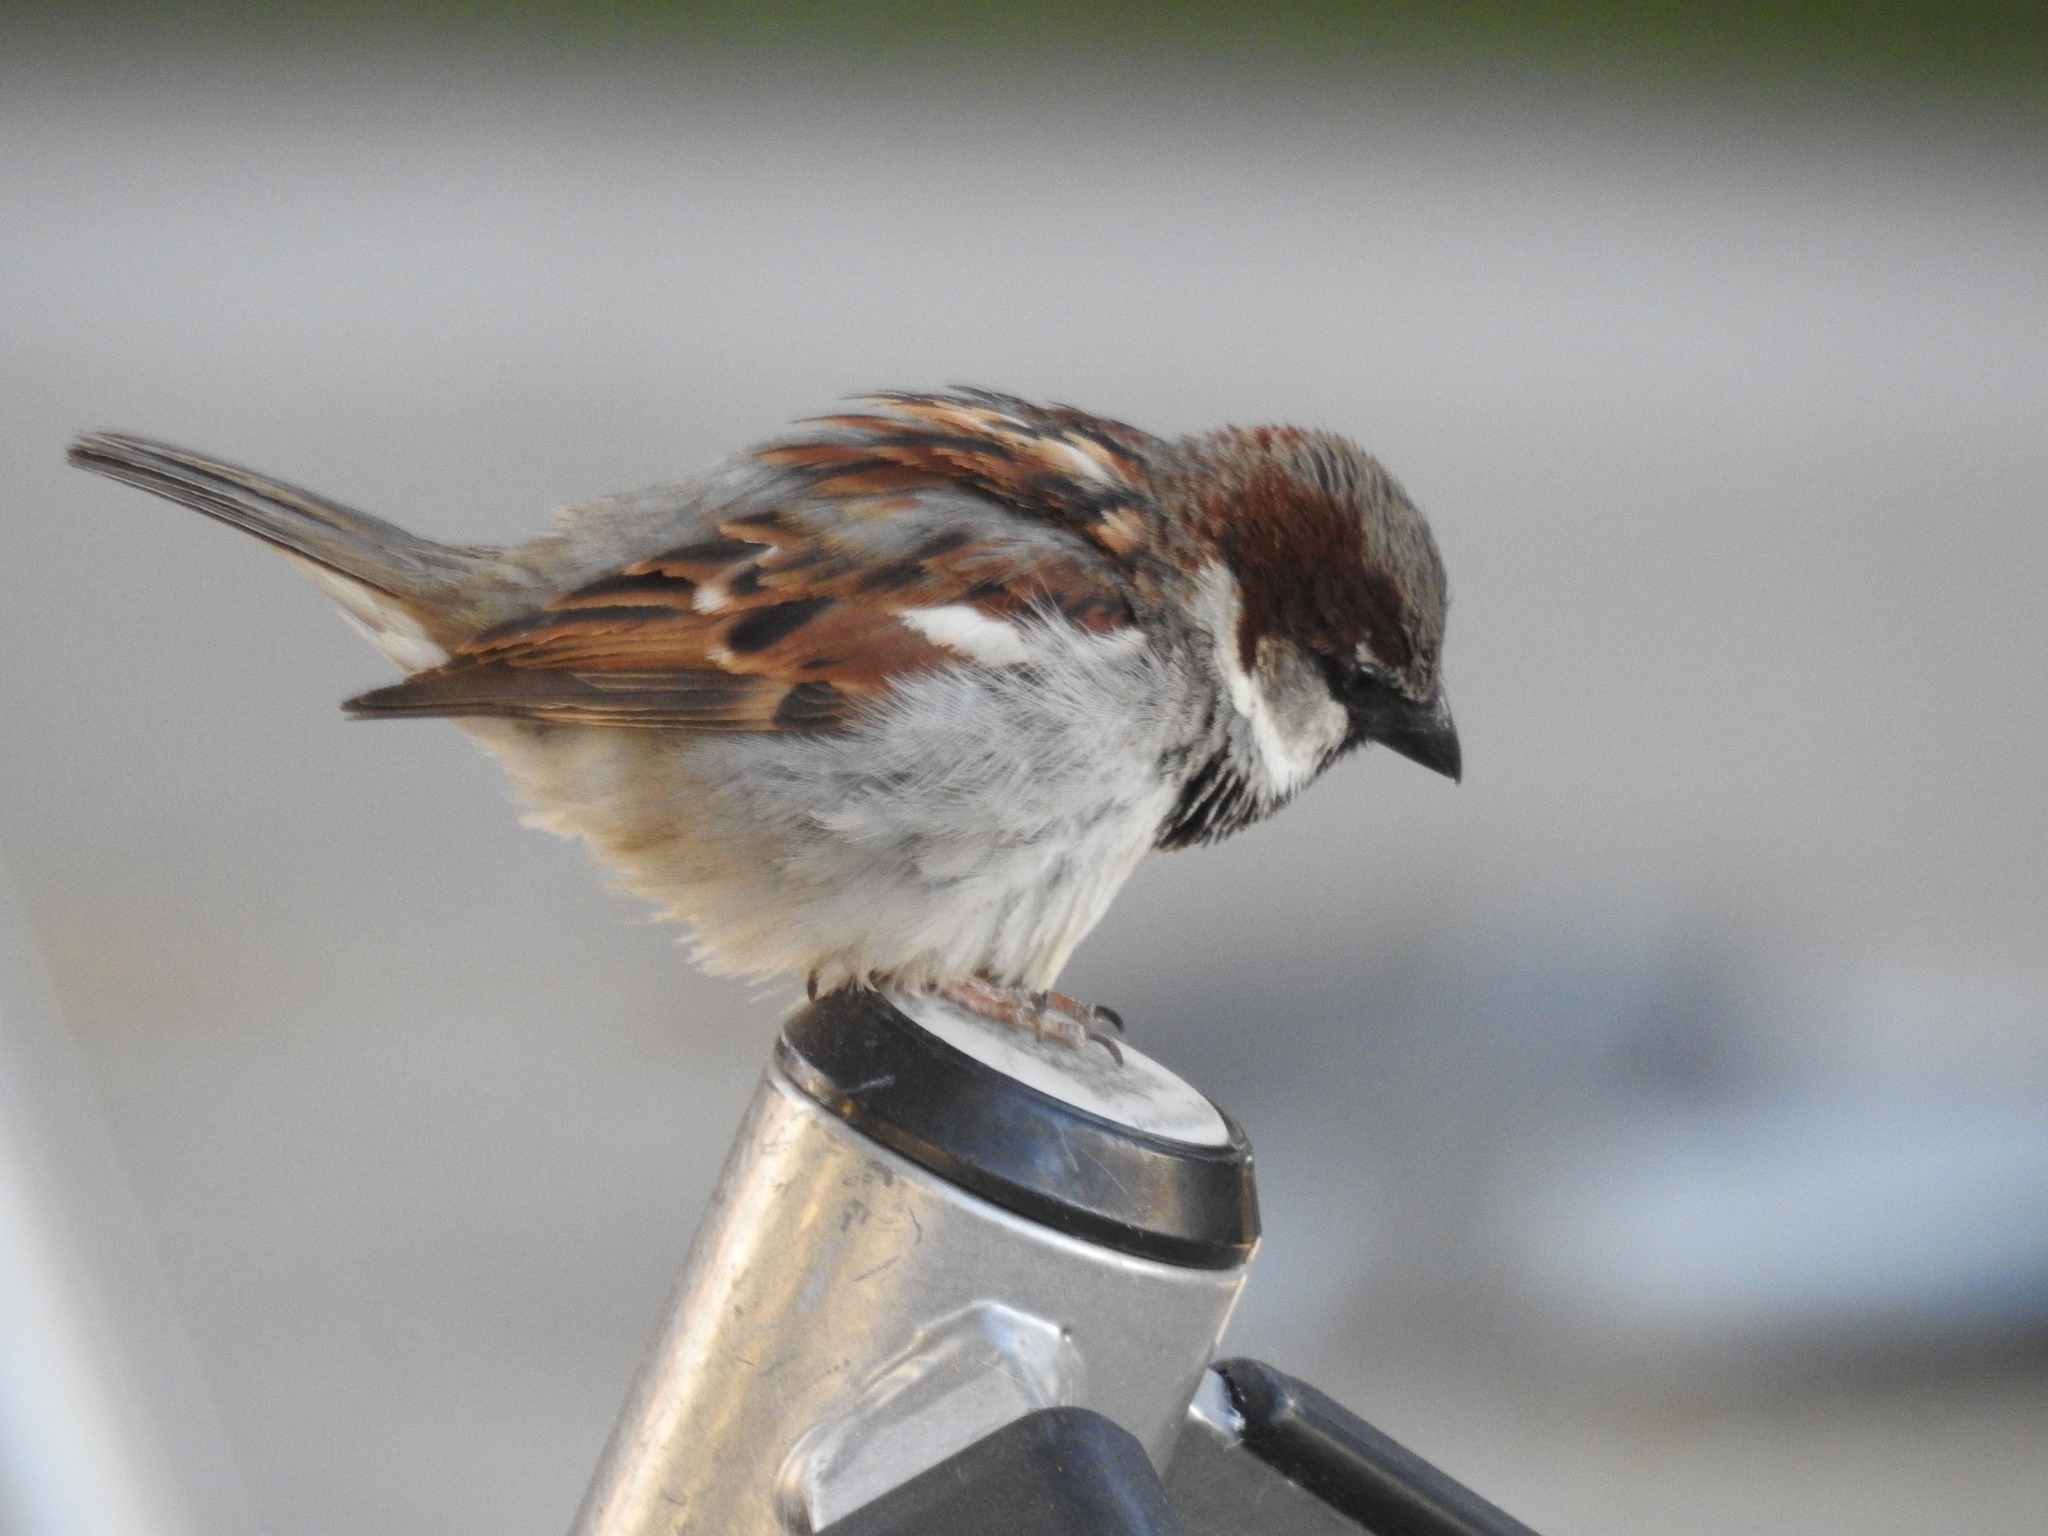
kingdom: Animalia
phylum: Chordata
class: Aves
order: Passeriformes
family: Passeridae
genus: Passer
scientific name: Passer domesticus
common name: House sparrow
